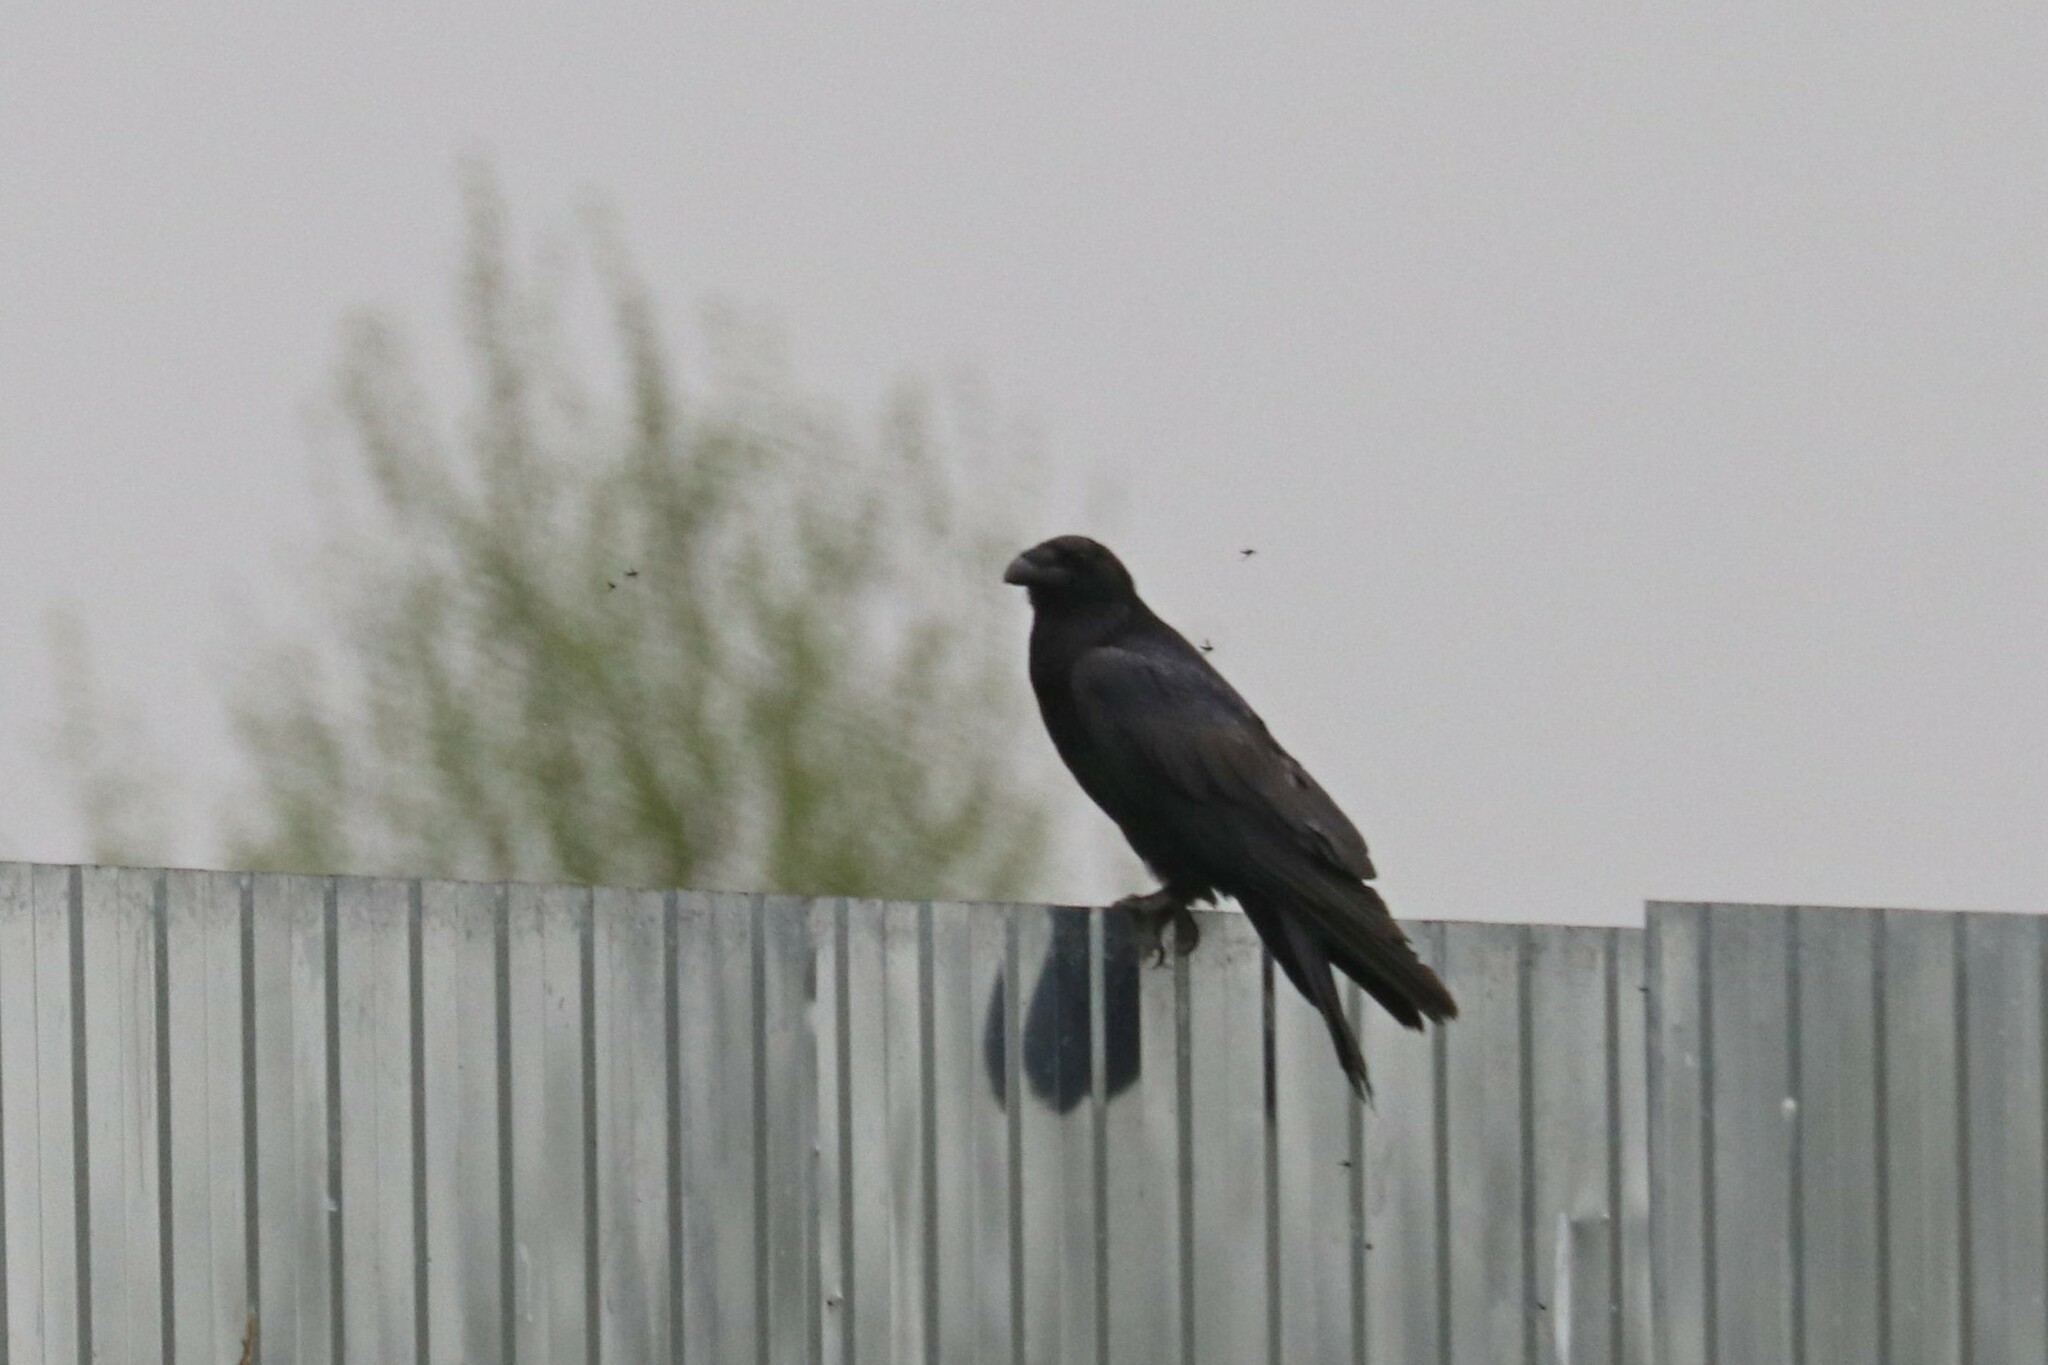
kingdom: Animalia
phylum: Chordata
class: Aves
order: Passeriformes
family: Corvidae
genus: Corvus
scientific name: Corvus corax
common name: Common raven
